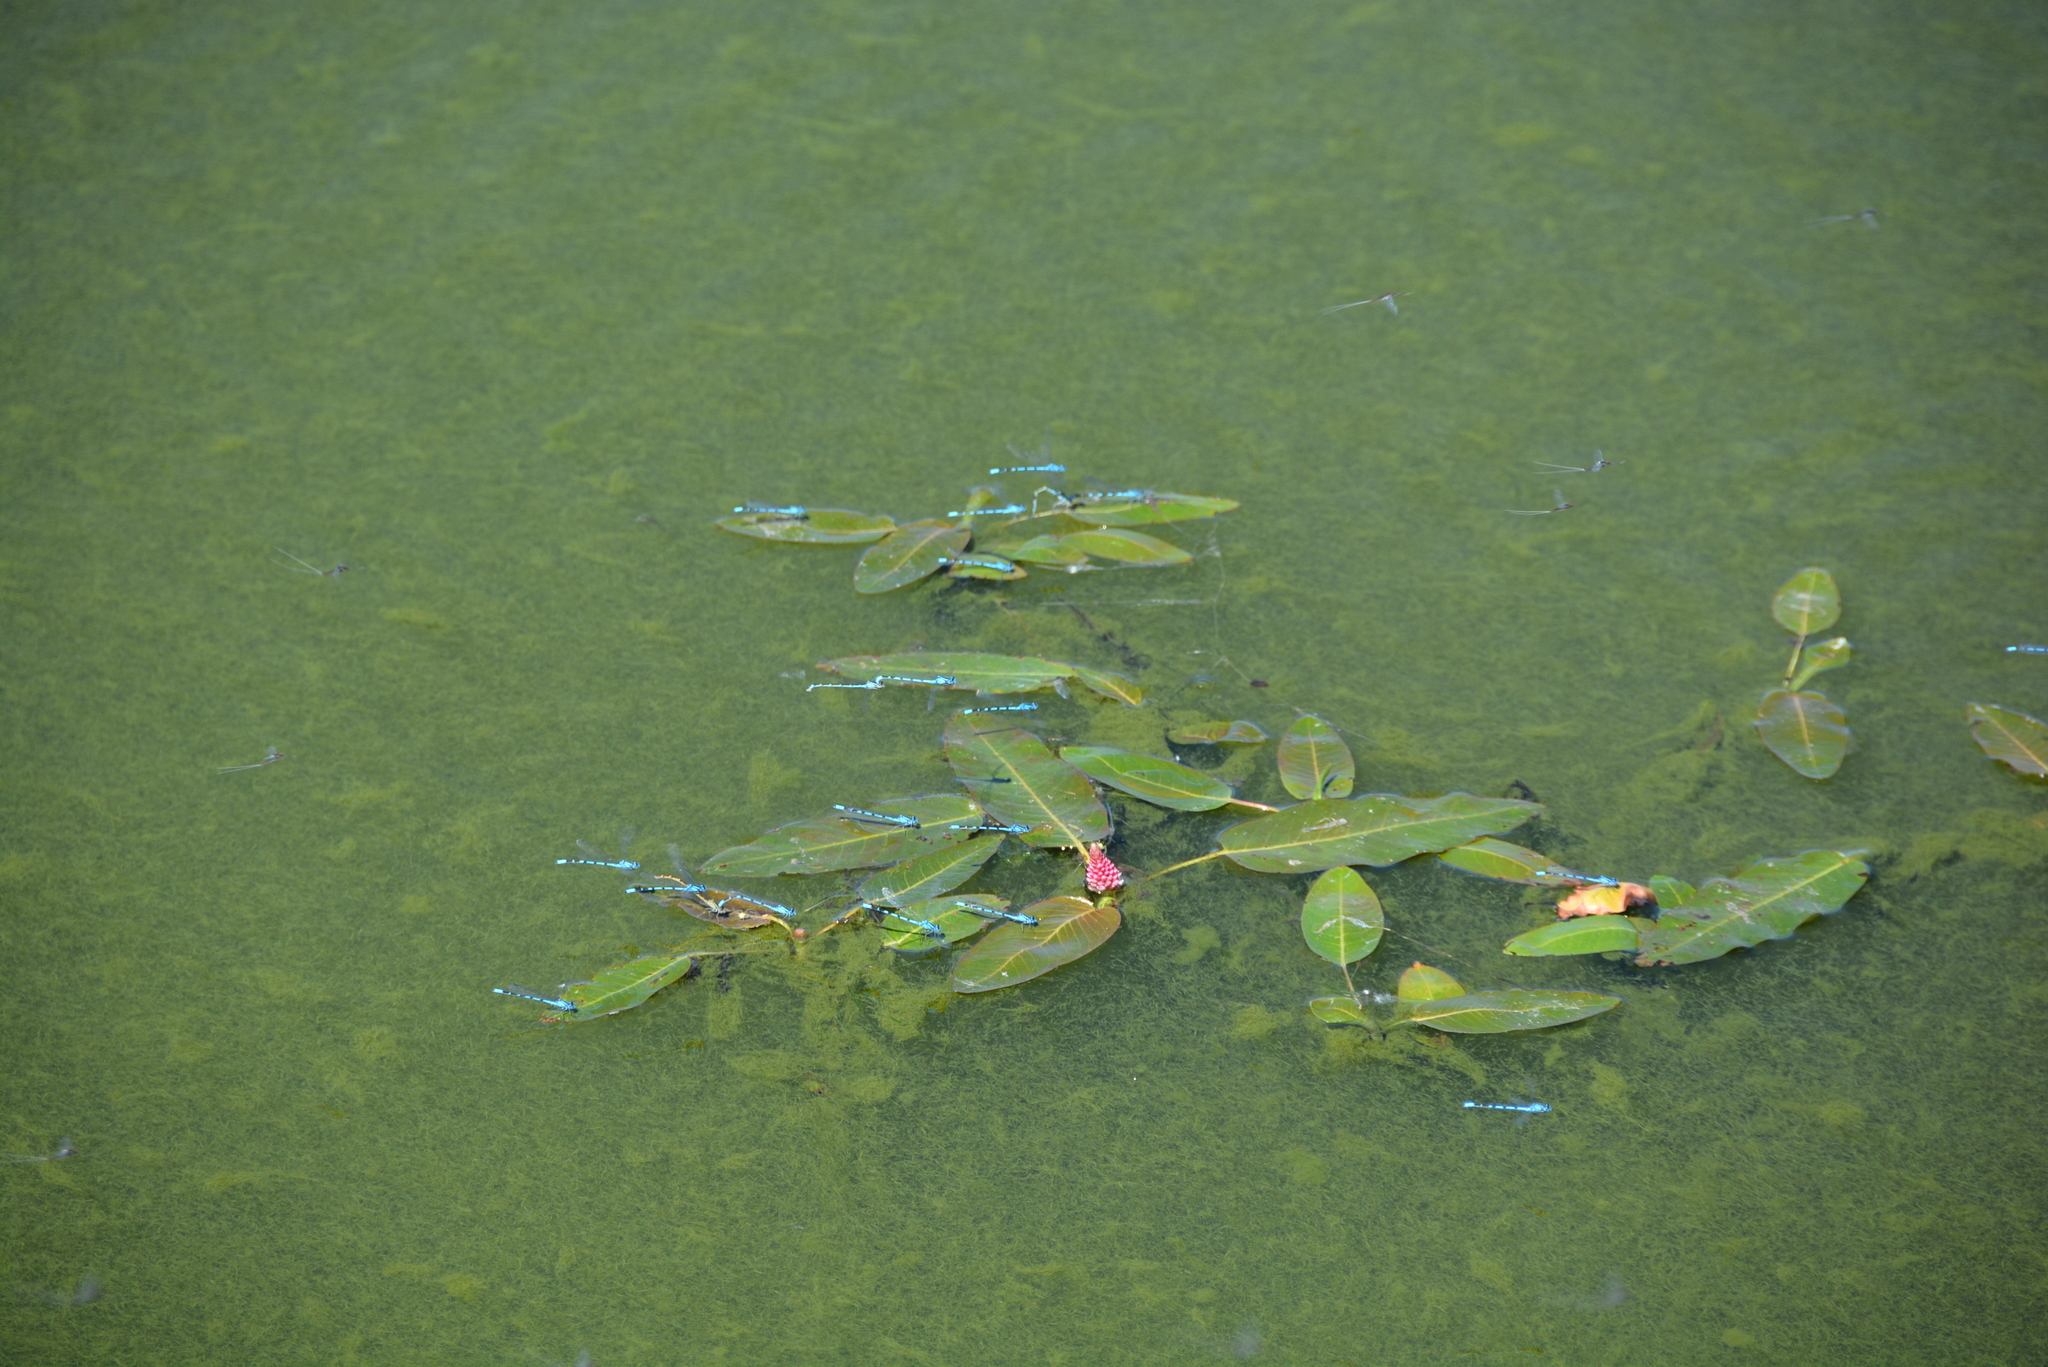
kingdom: Animalia
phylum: Arthropoda
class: Insecta
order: Odonata
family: Coenagrionidae
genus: Enallagma
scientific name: Enallagma
